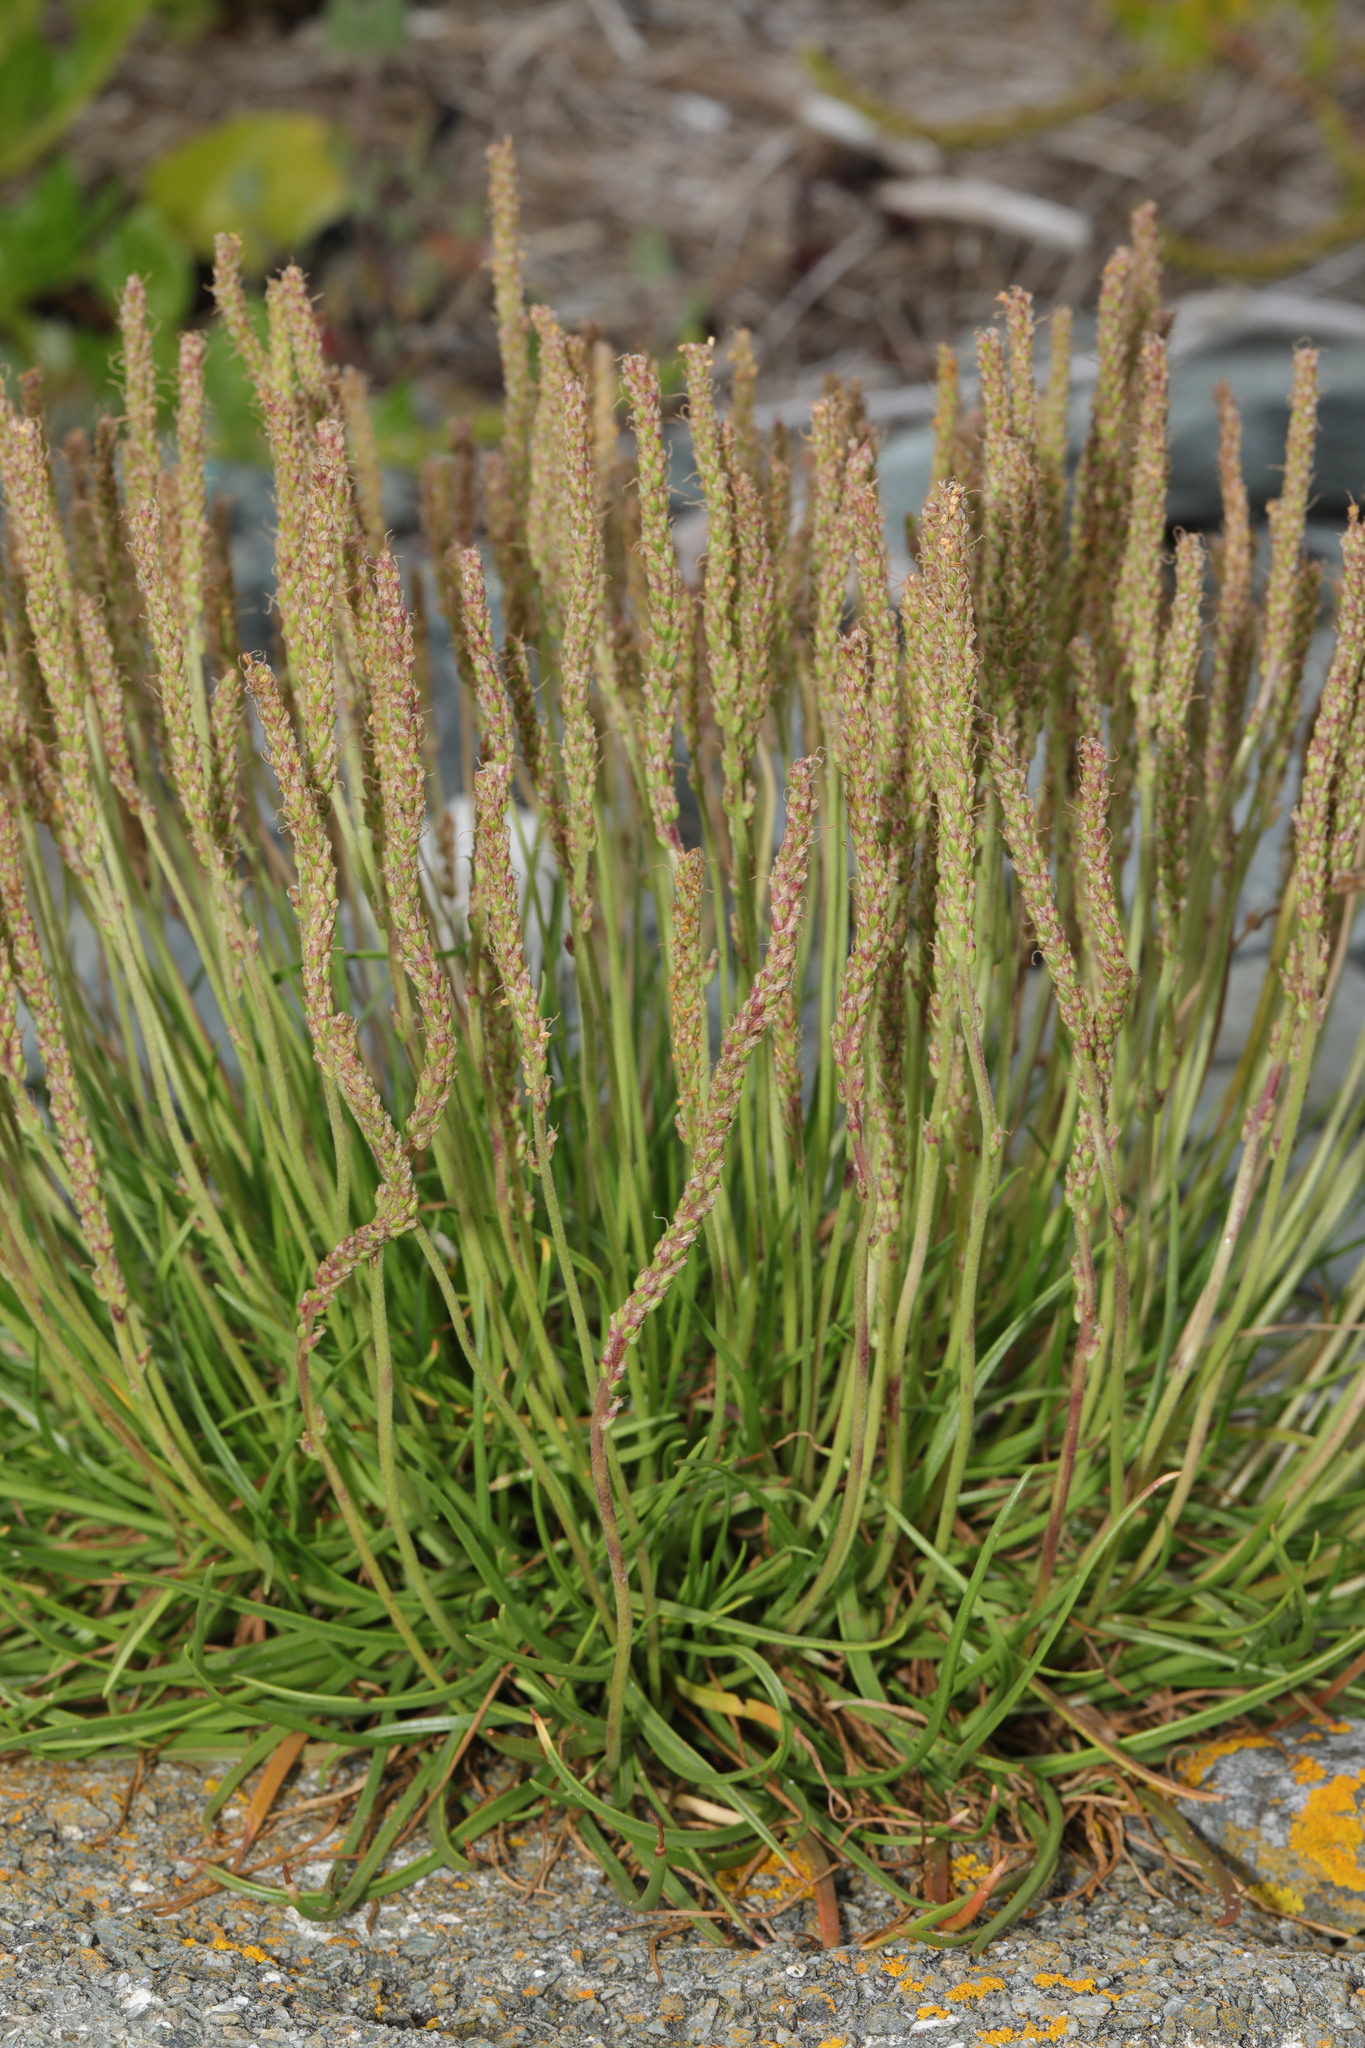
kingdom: Plantae
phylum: Tracheophyta
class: Magnoliopsida
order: Lamiales
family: Plantaginaceae
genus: Plantago
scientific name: Plantago maritima
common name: Sea plantain
